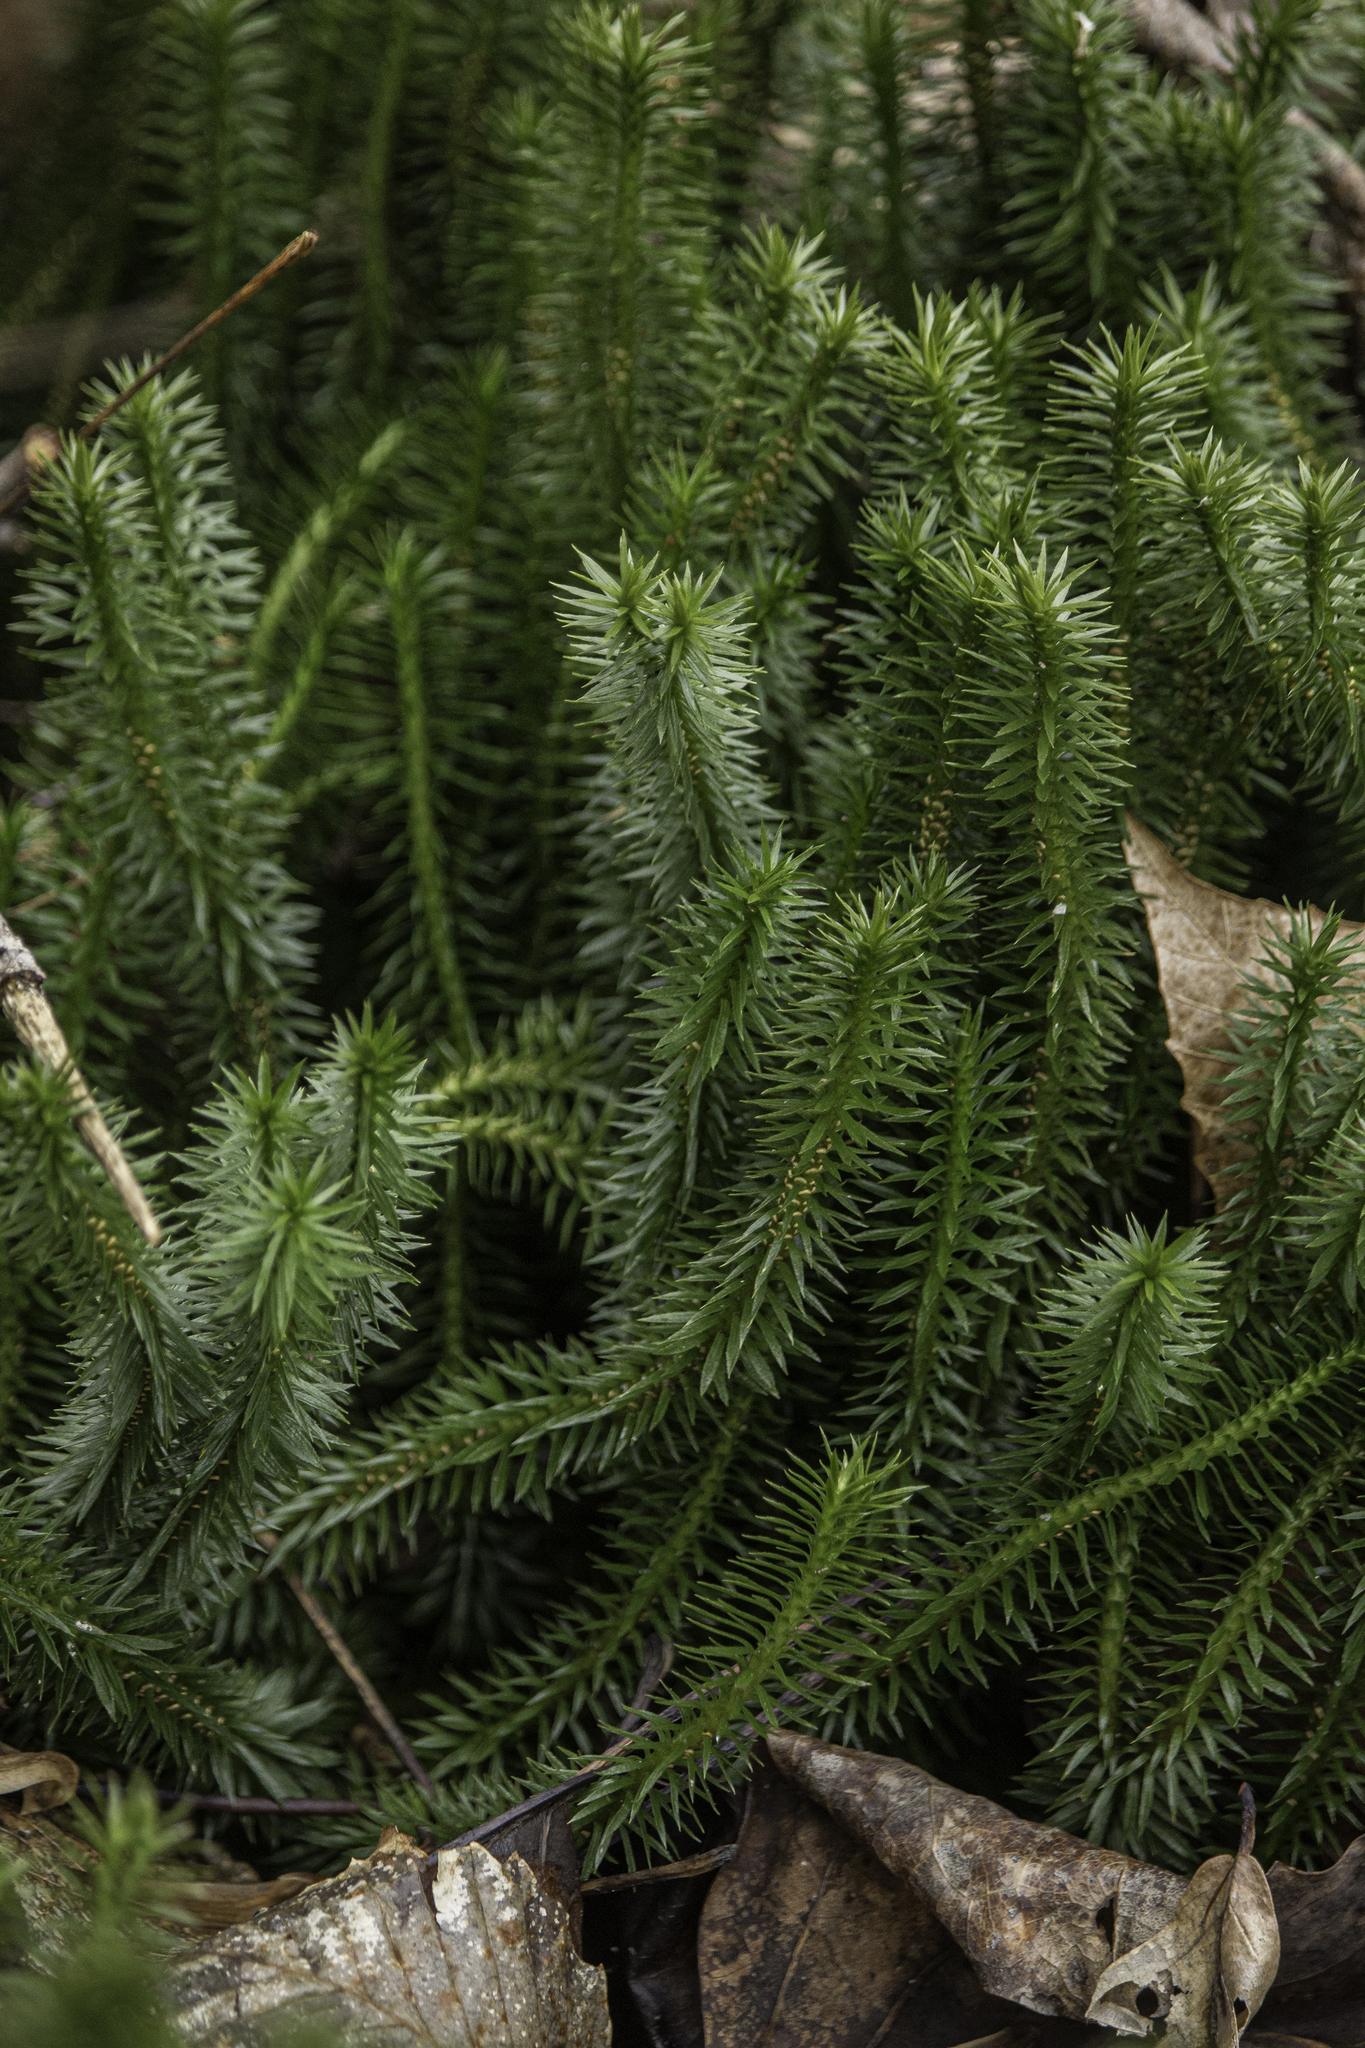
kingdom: Plantae
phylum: Tracheophyta
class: Lycopodiopsida
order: Lycopodiales
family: Lycopodiaceae
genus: Huperzia
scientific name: Huperzia lucidula
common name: Shining clubmoss
